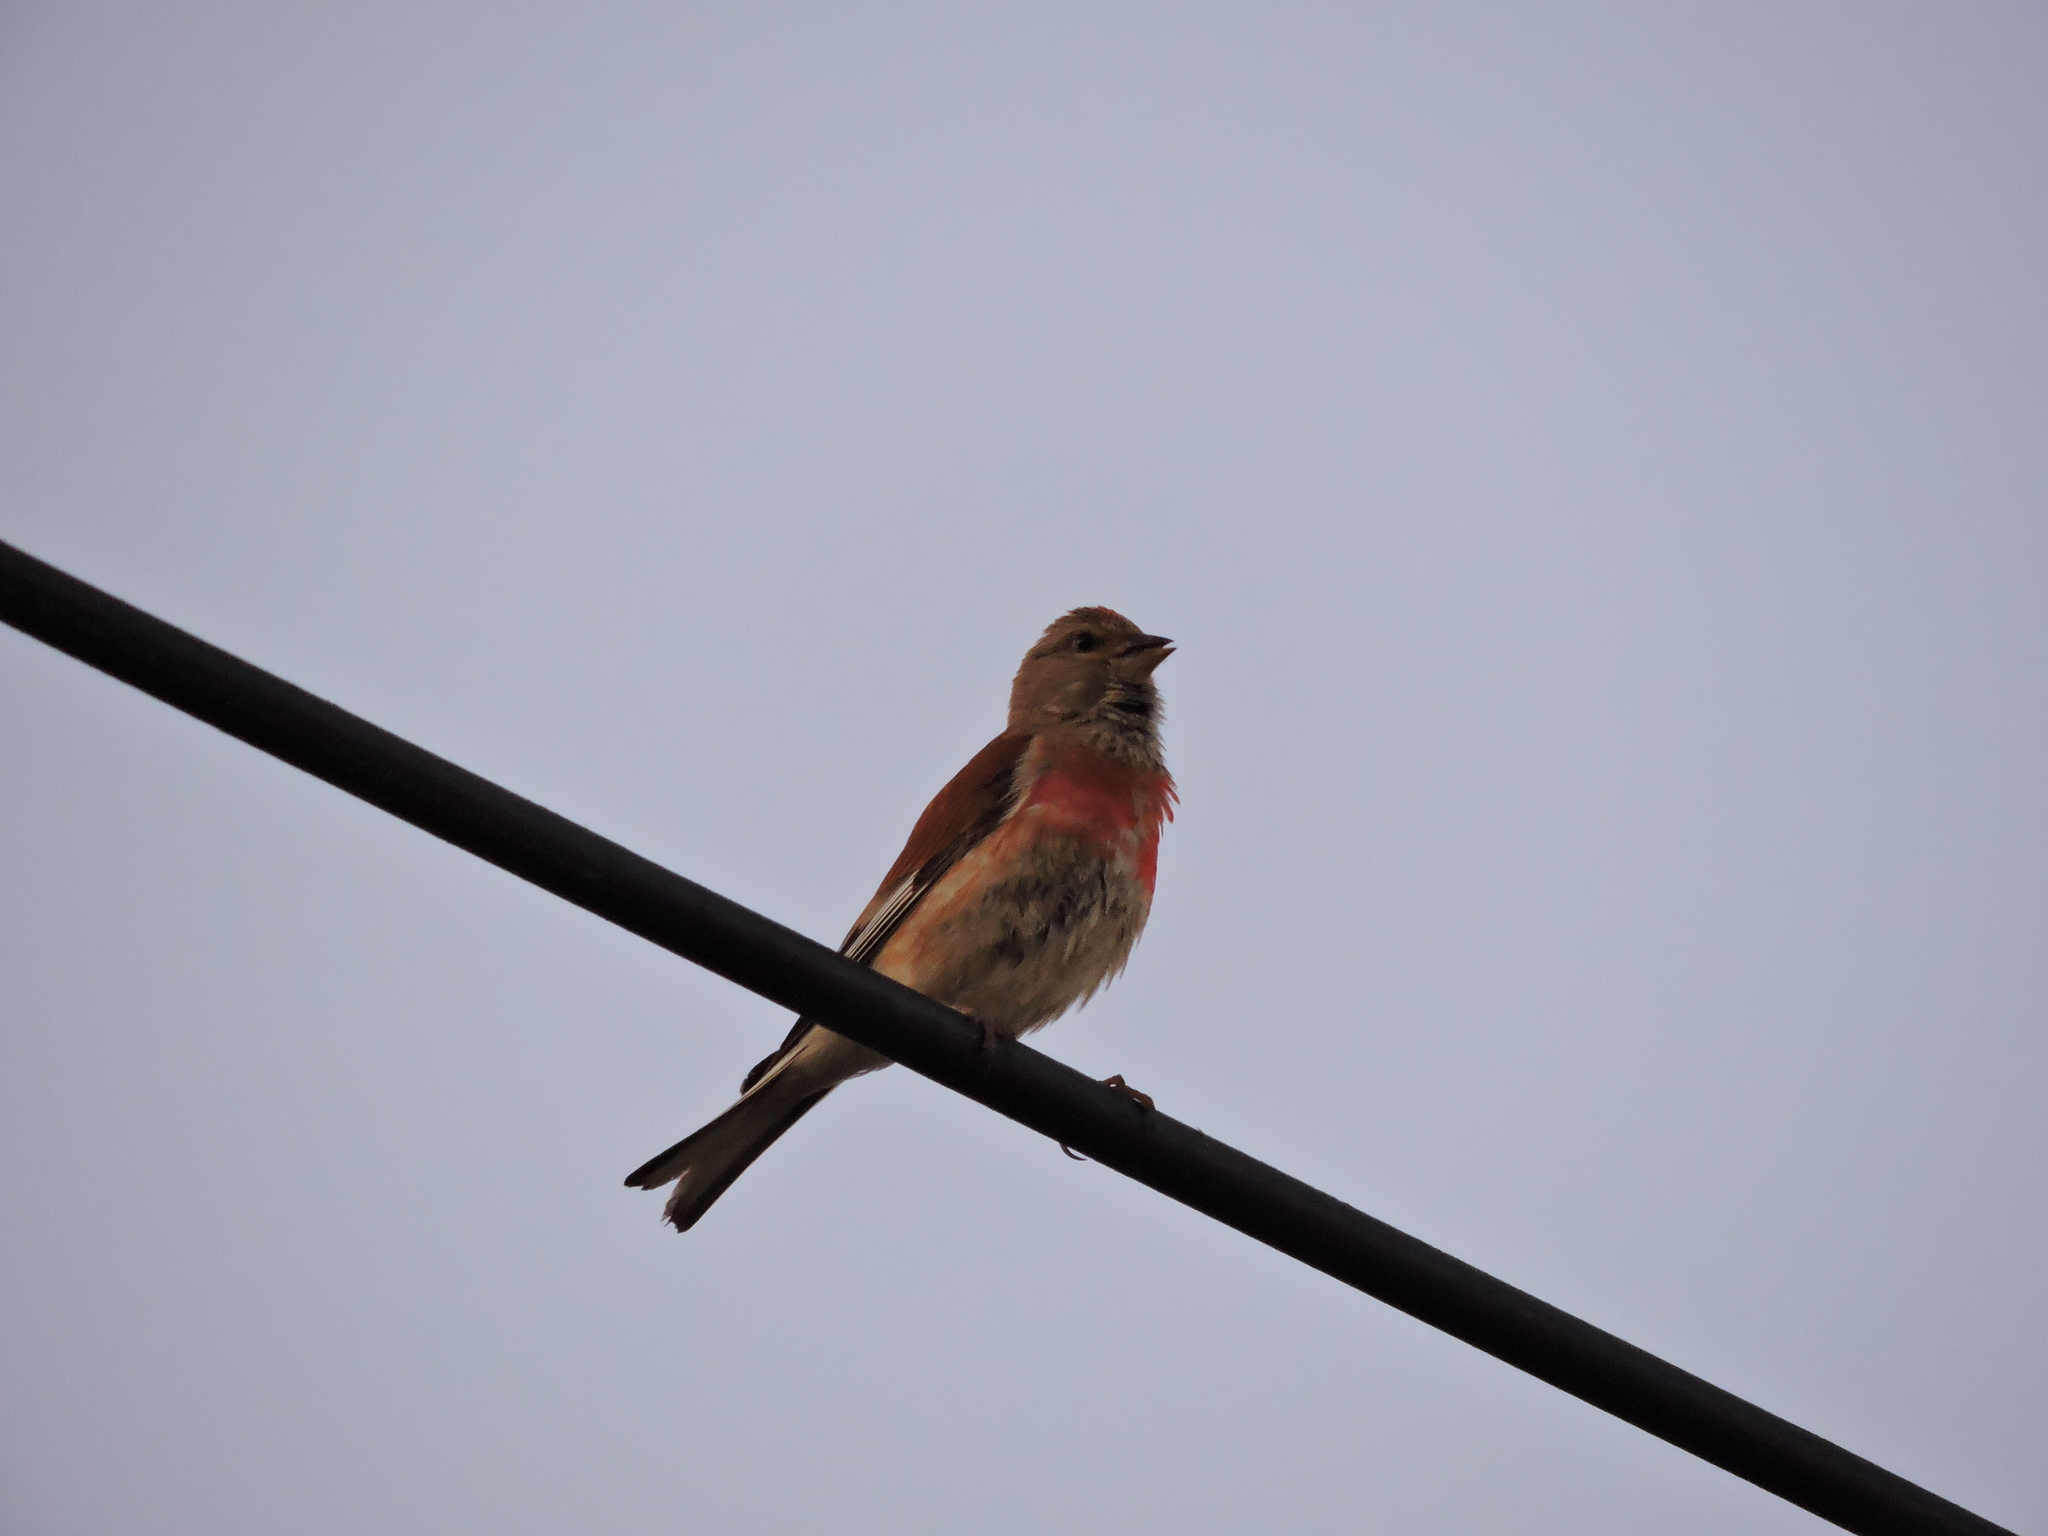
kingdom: Animalia
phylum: Chordata
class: Aves
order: Passeriformes
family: Fringillidae
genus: Linaria
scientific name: Linaria cannabina
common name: Common linnet
